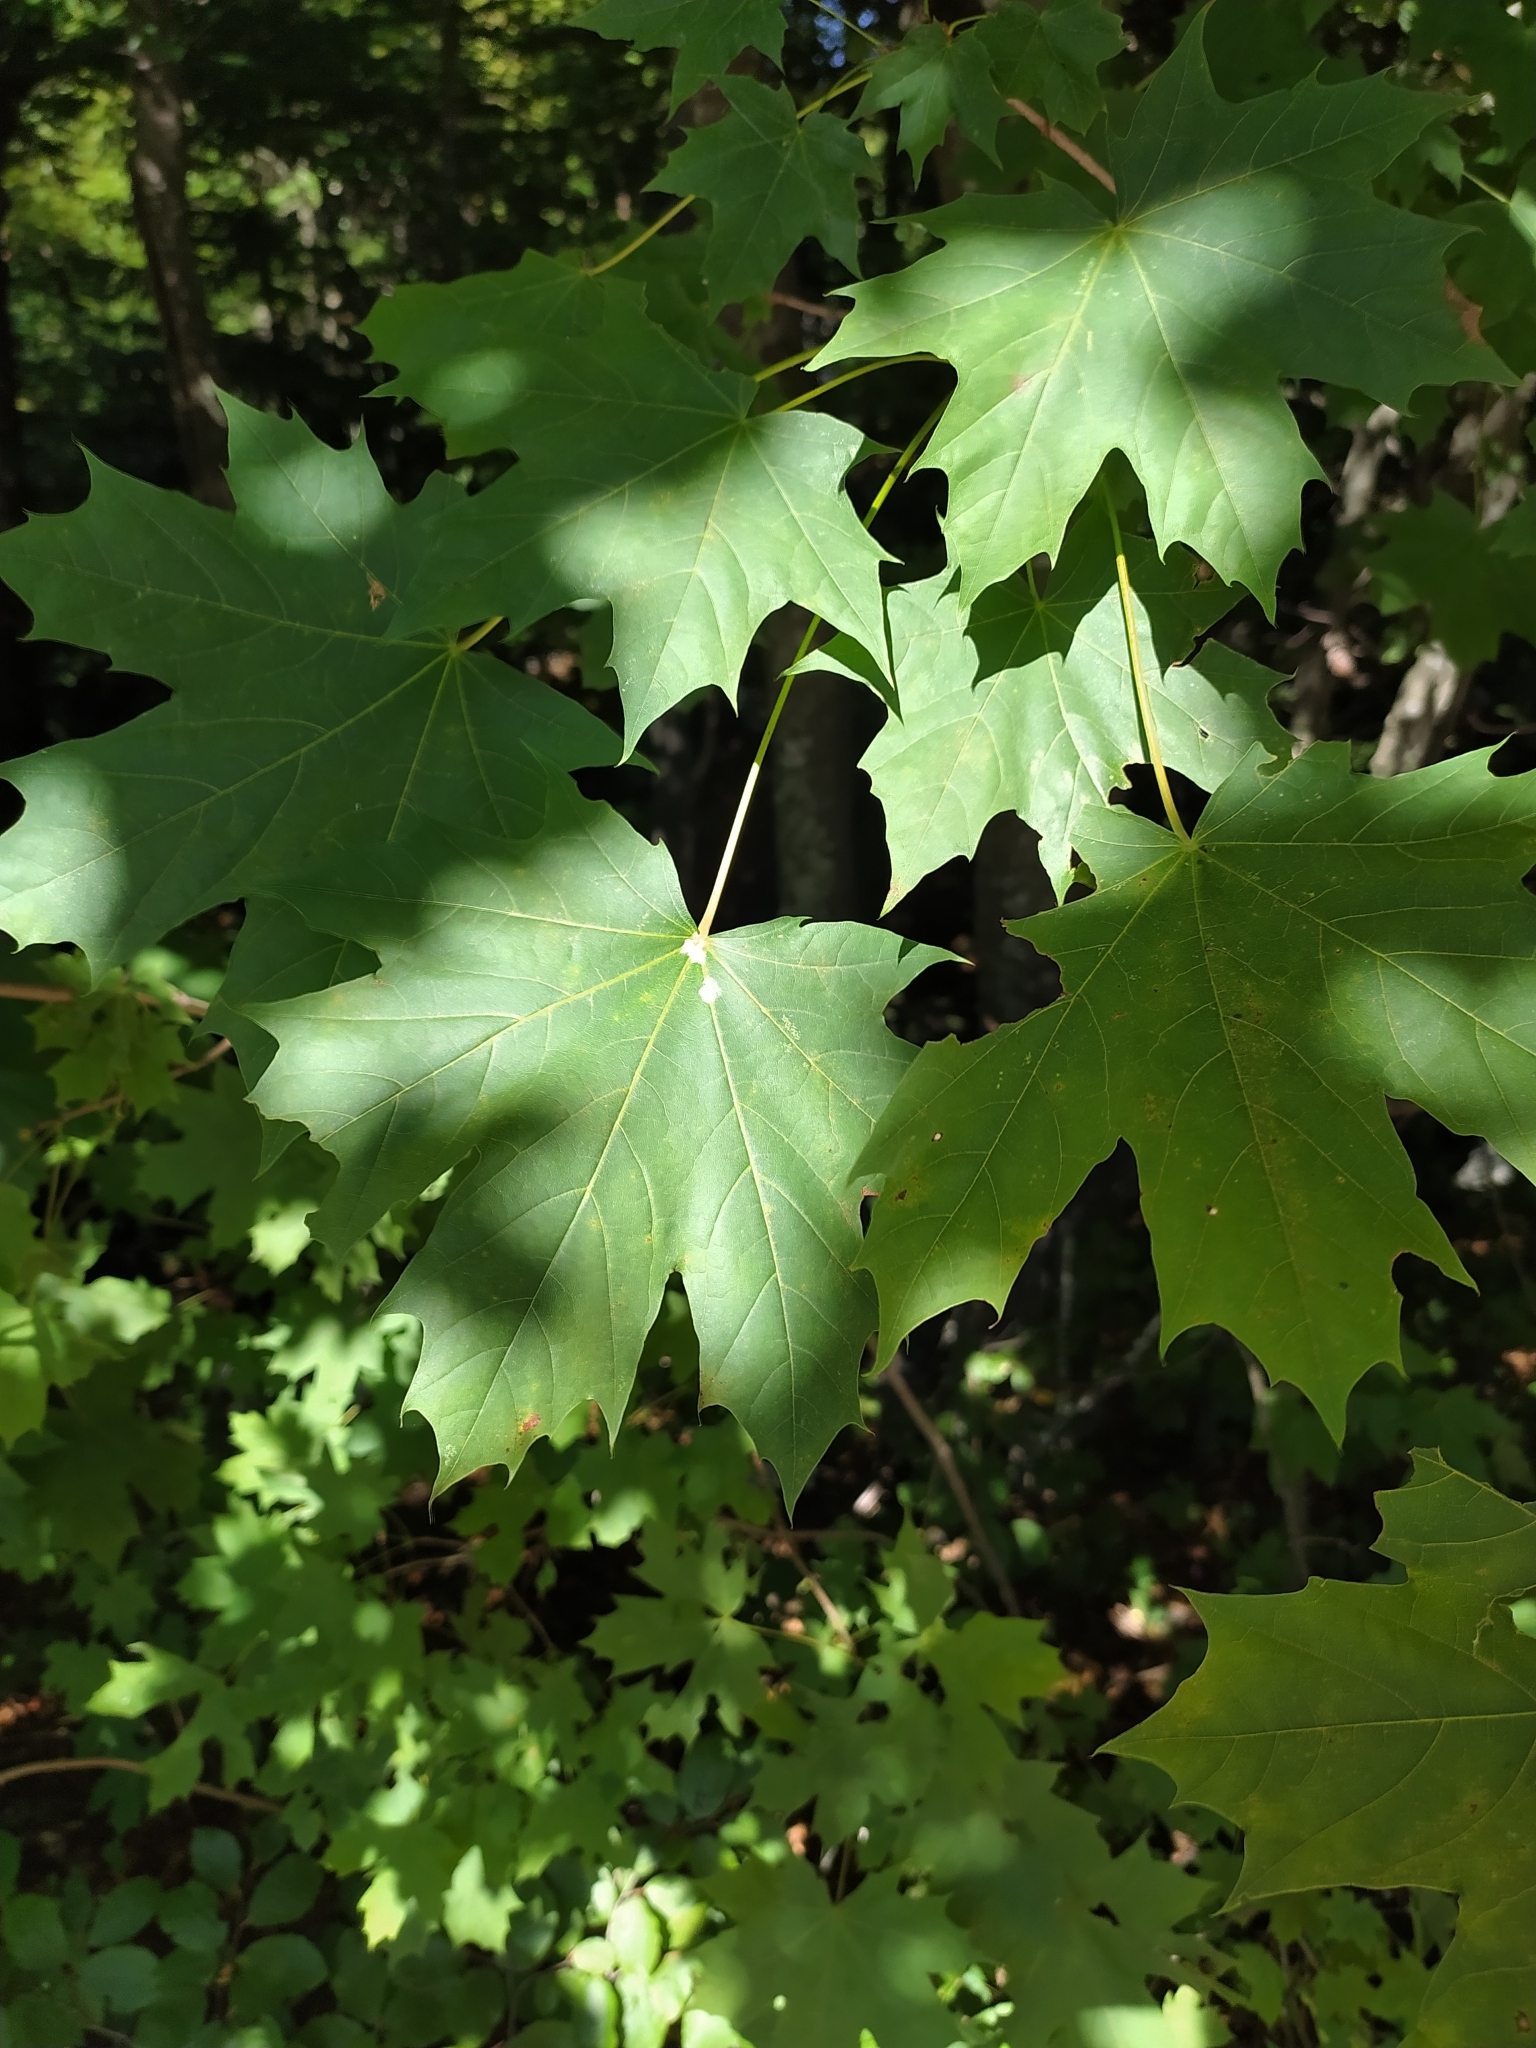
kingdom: Plantae
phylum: Tracheophyta
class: Magnoliopsida
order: Sapindales
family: Sapindaceae
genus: Acer
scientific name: Acer platanoides
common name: Norway maple
